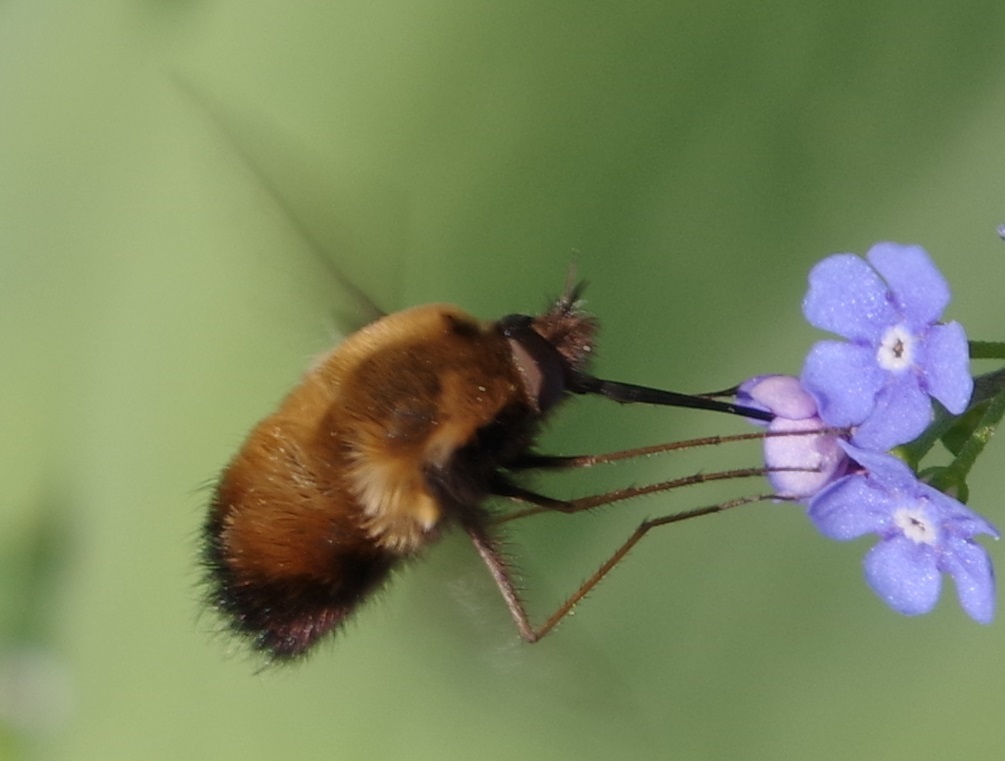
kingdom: Animalia
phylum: Arthropoda
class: Insecta
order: Diptera
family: Bombyliidae
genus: Bombylius
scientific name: Bombylius discolor
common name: Dotted bee-fly
